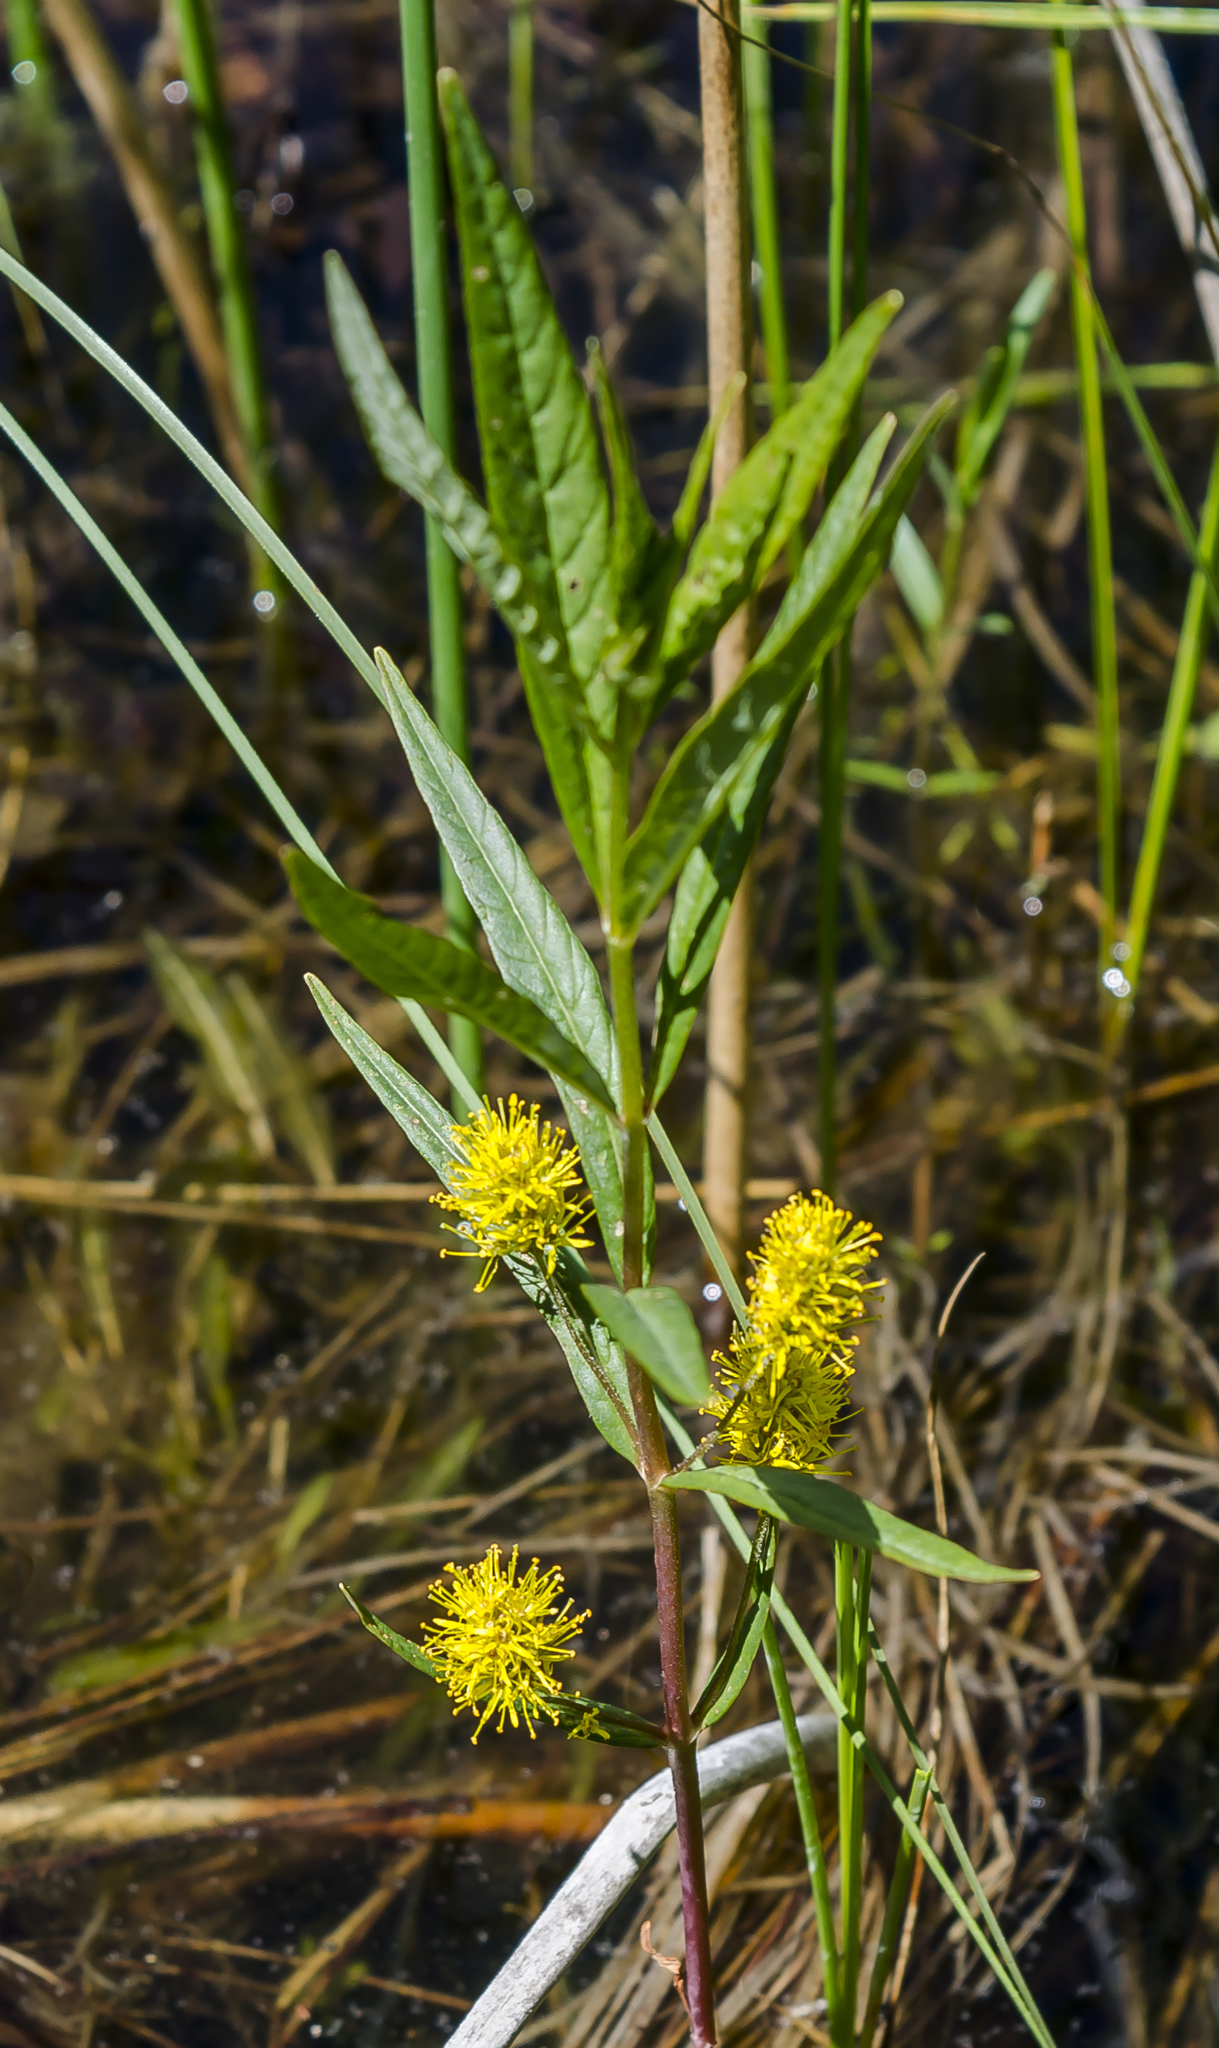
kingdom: Plantae
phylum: Tracheophyta
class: Magnoliopsida
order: Ericales
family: Primulaceae
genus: Lysimachia
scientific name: Lysimachia thyrsiflora
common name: Tufted loosestrife
